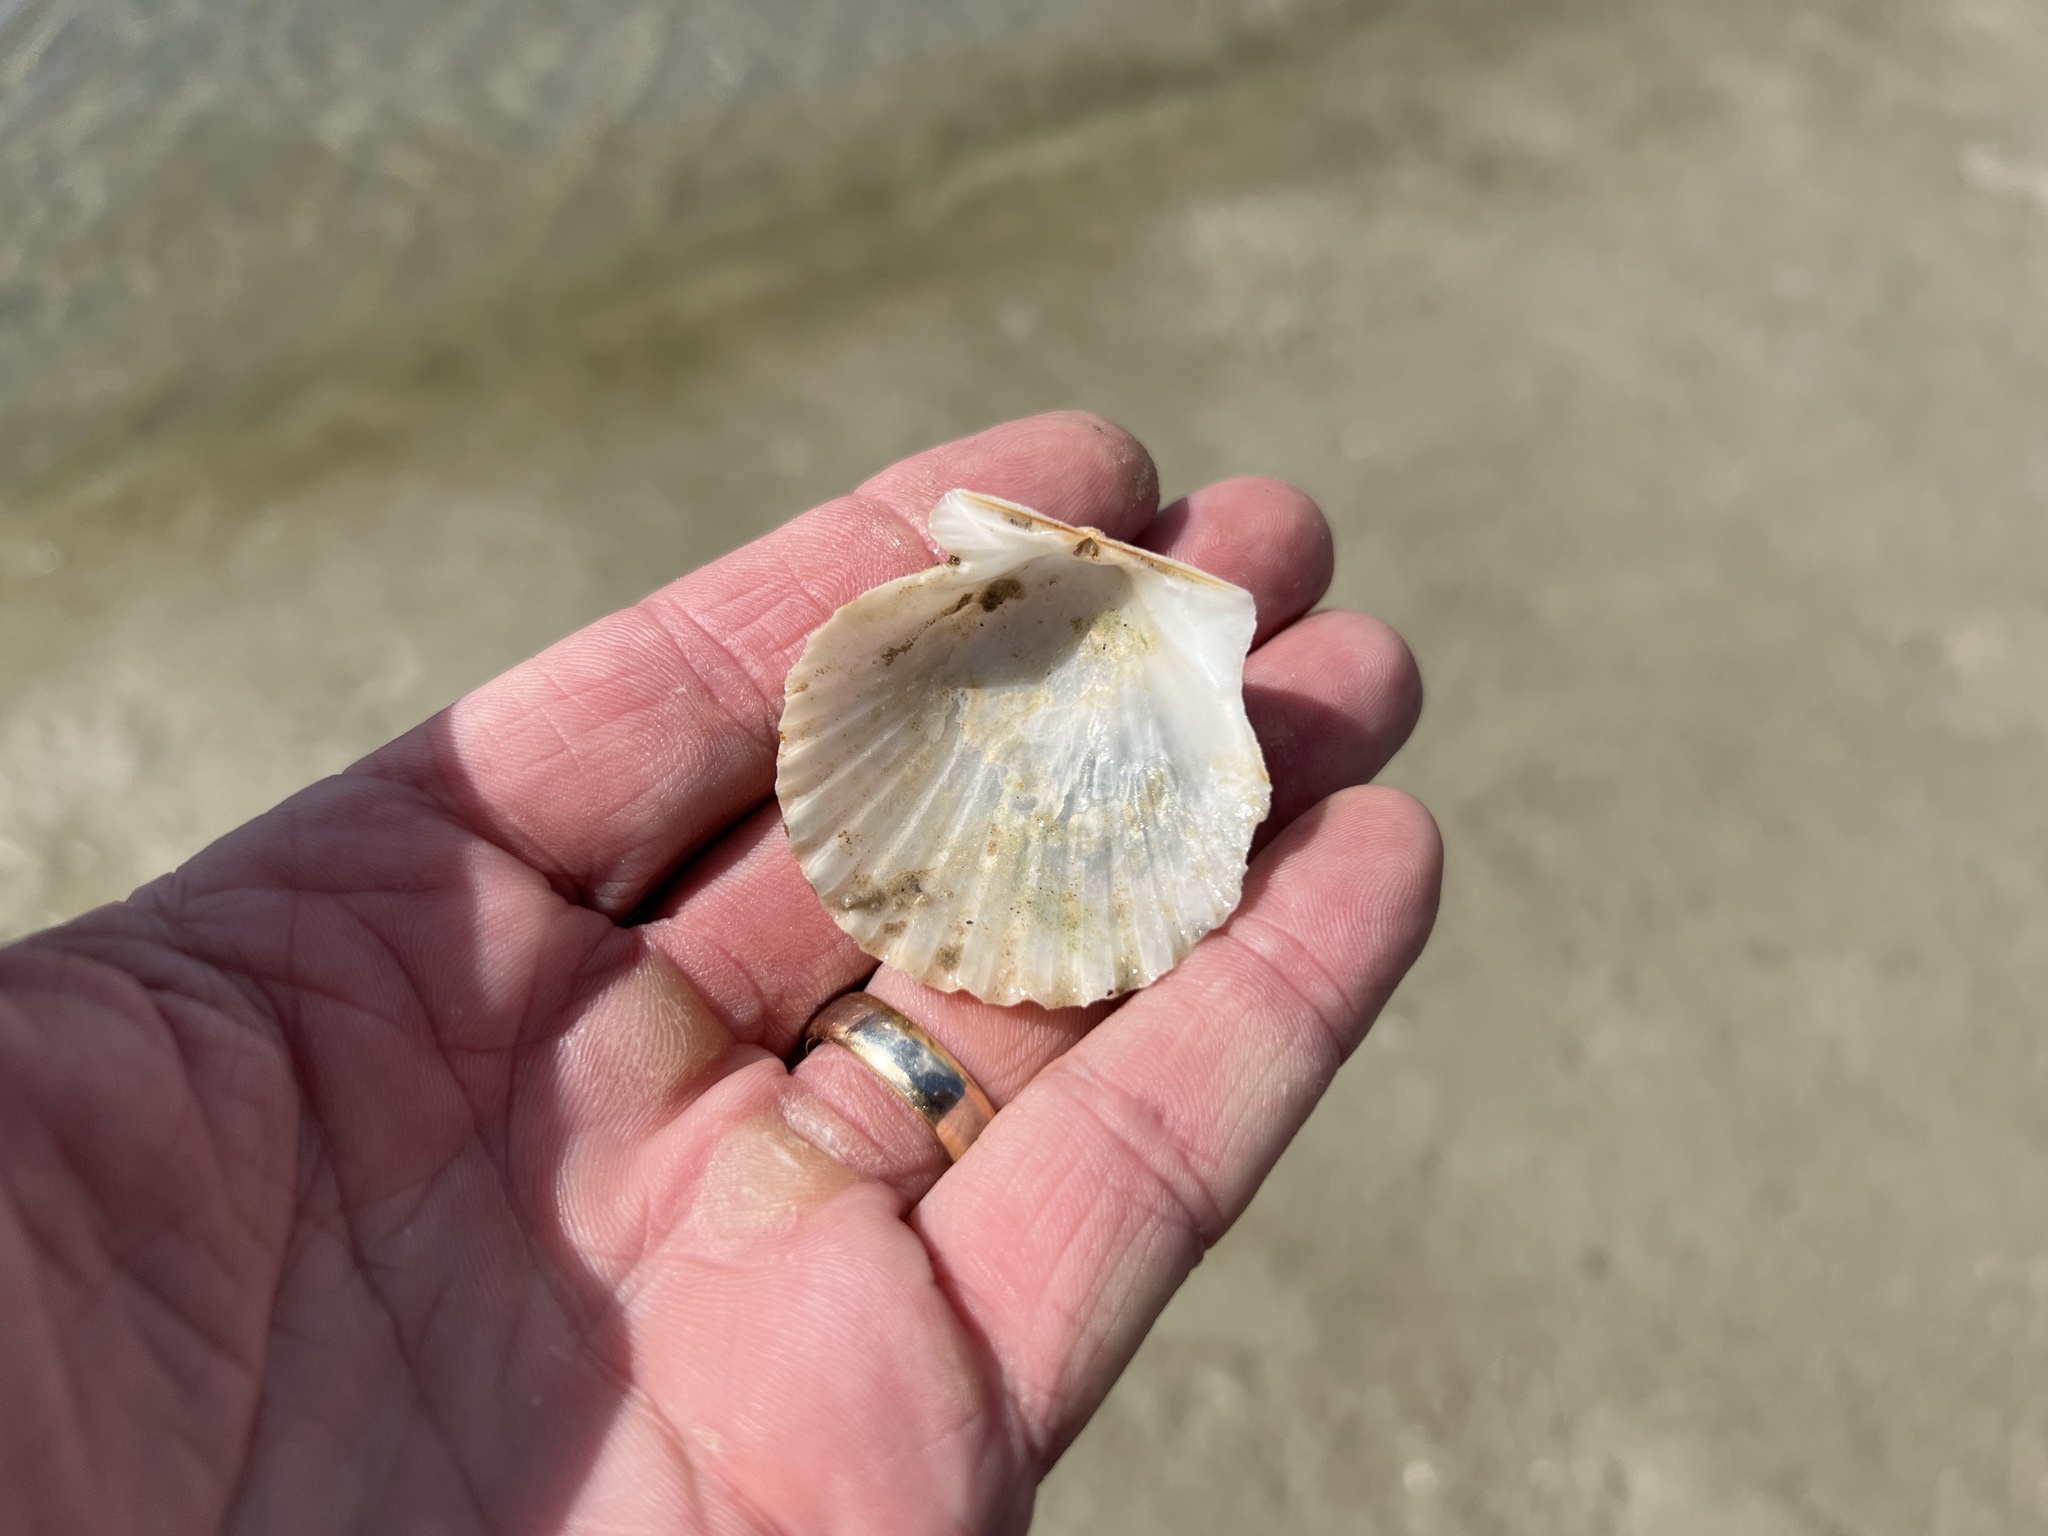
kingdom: Animalia
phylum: Mollusca
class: Bivalvia
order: Pectinida
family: Pectinidae
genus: Argopecten
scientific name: Argopecten irradians
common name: Atlantic bay scallop
